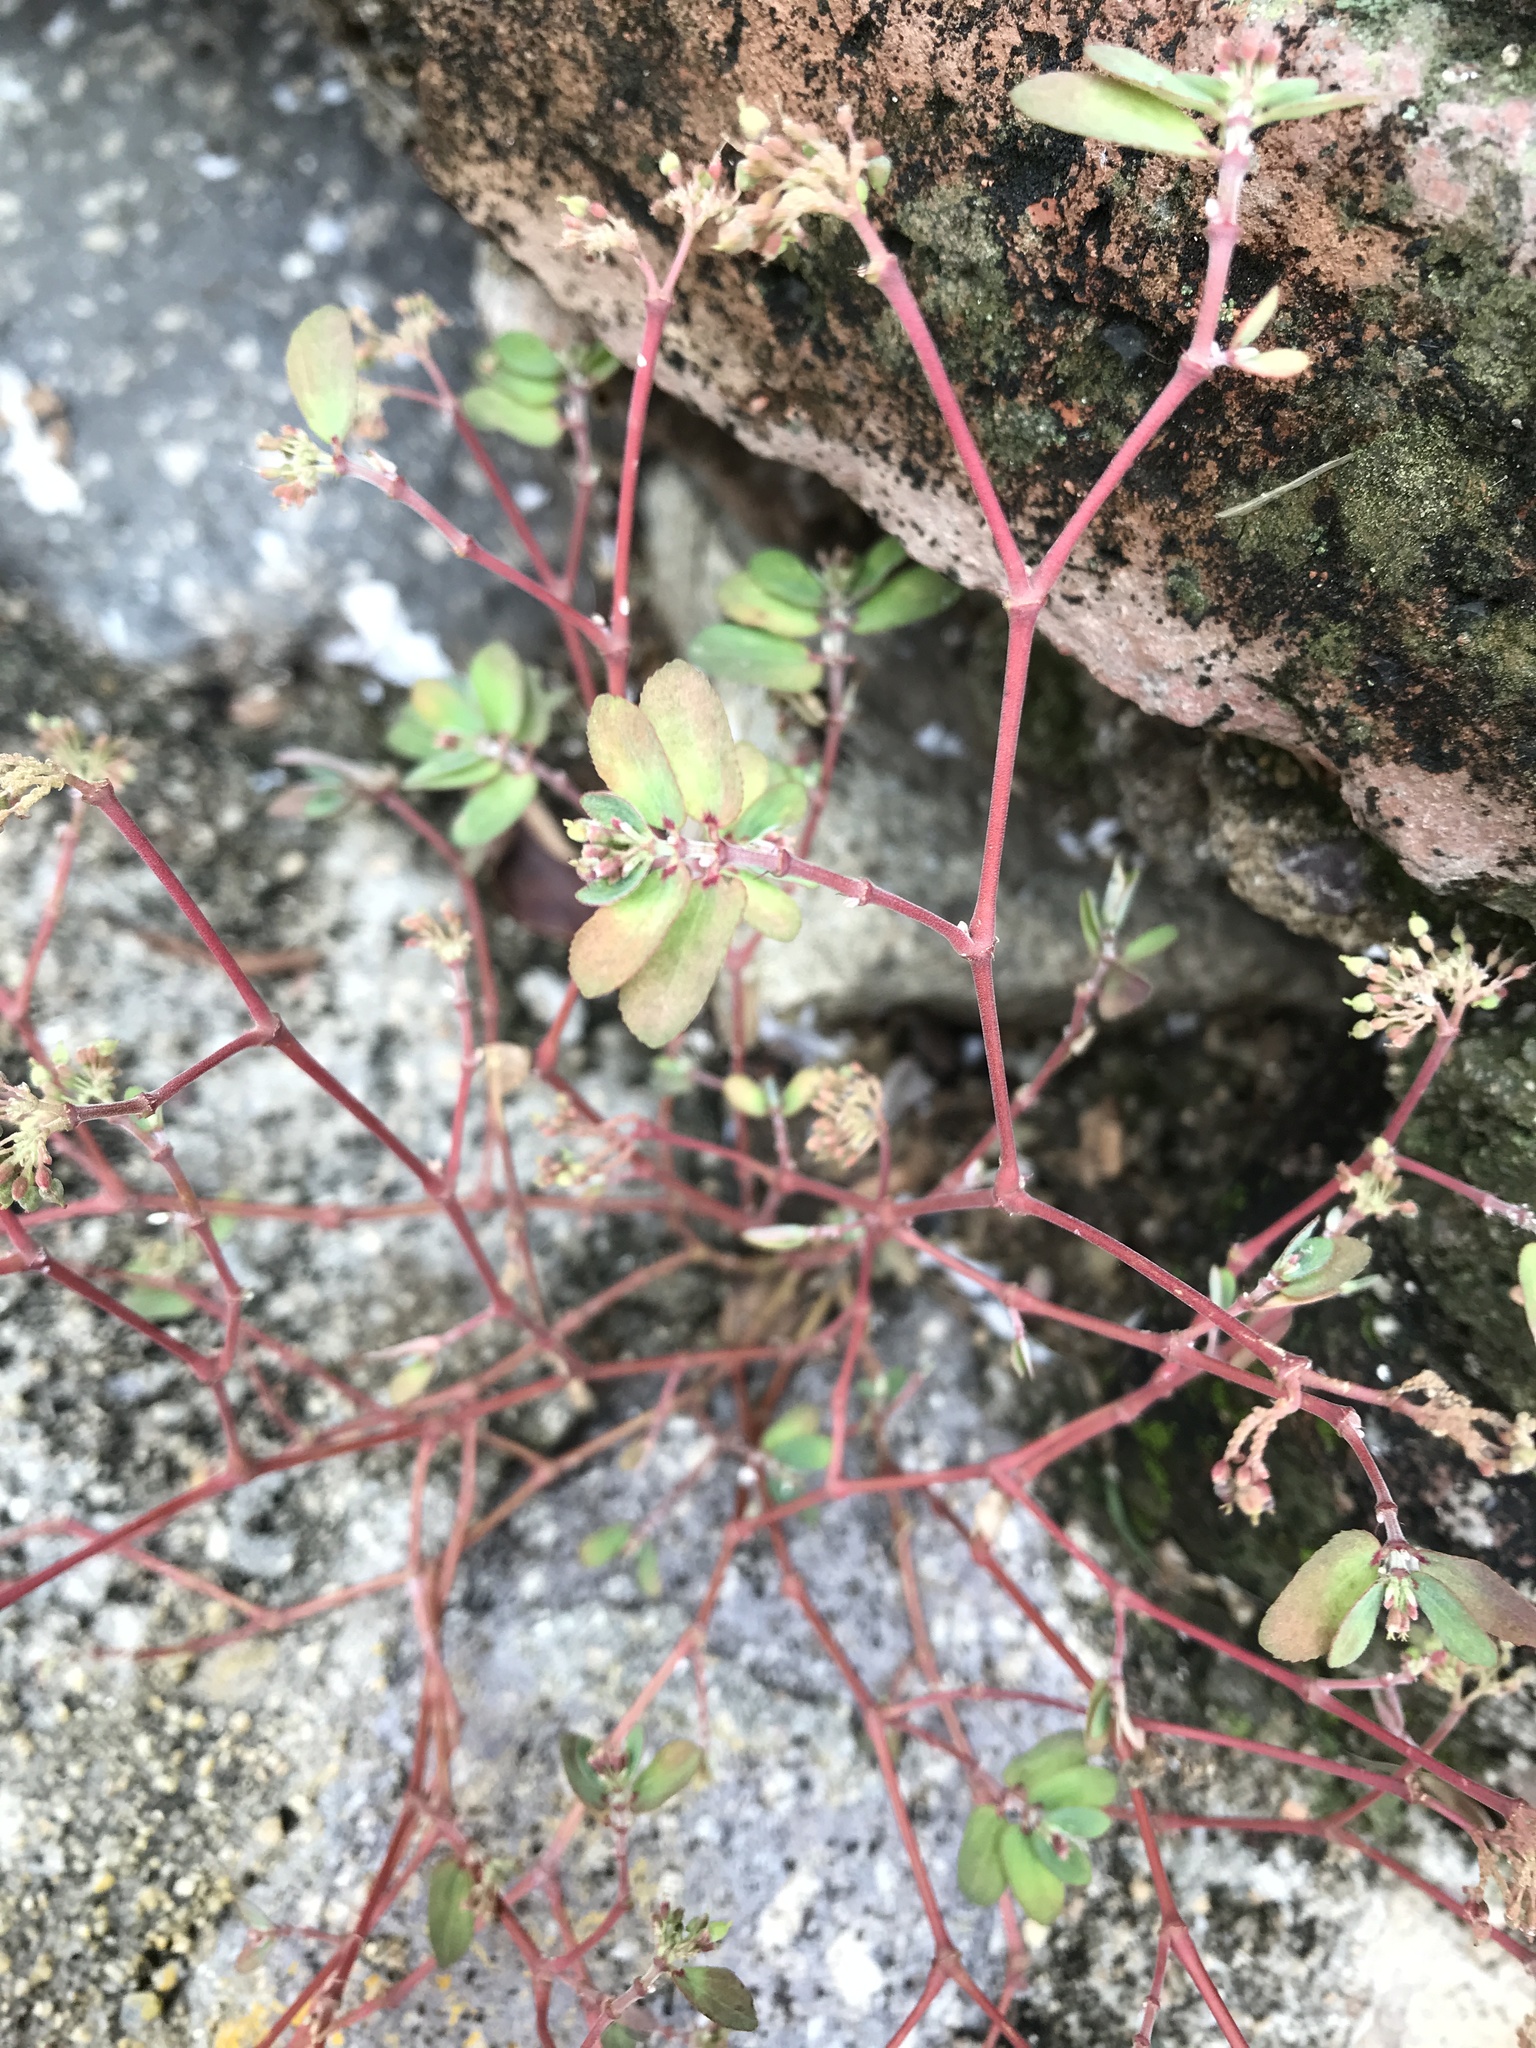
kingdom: Plantae
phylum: Tracheophyta
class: Magnoliopsida
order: Malpighiales
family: Euphorbiaceae
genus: Euphorbia
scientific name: Euphorbia berteroana
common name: Bertero's sandmat
